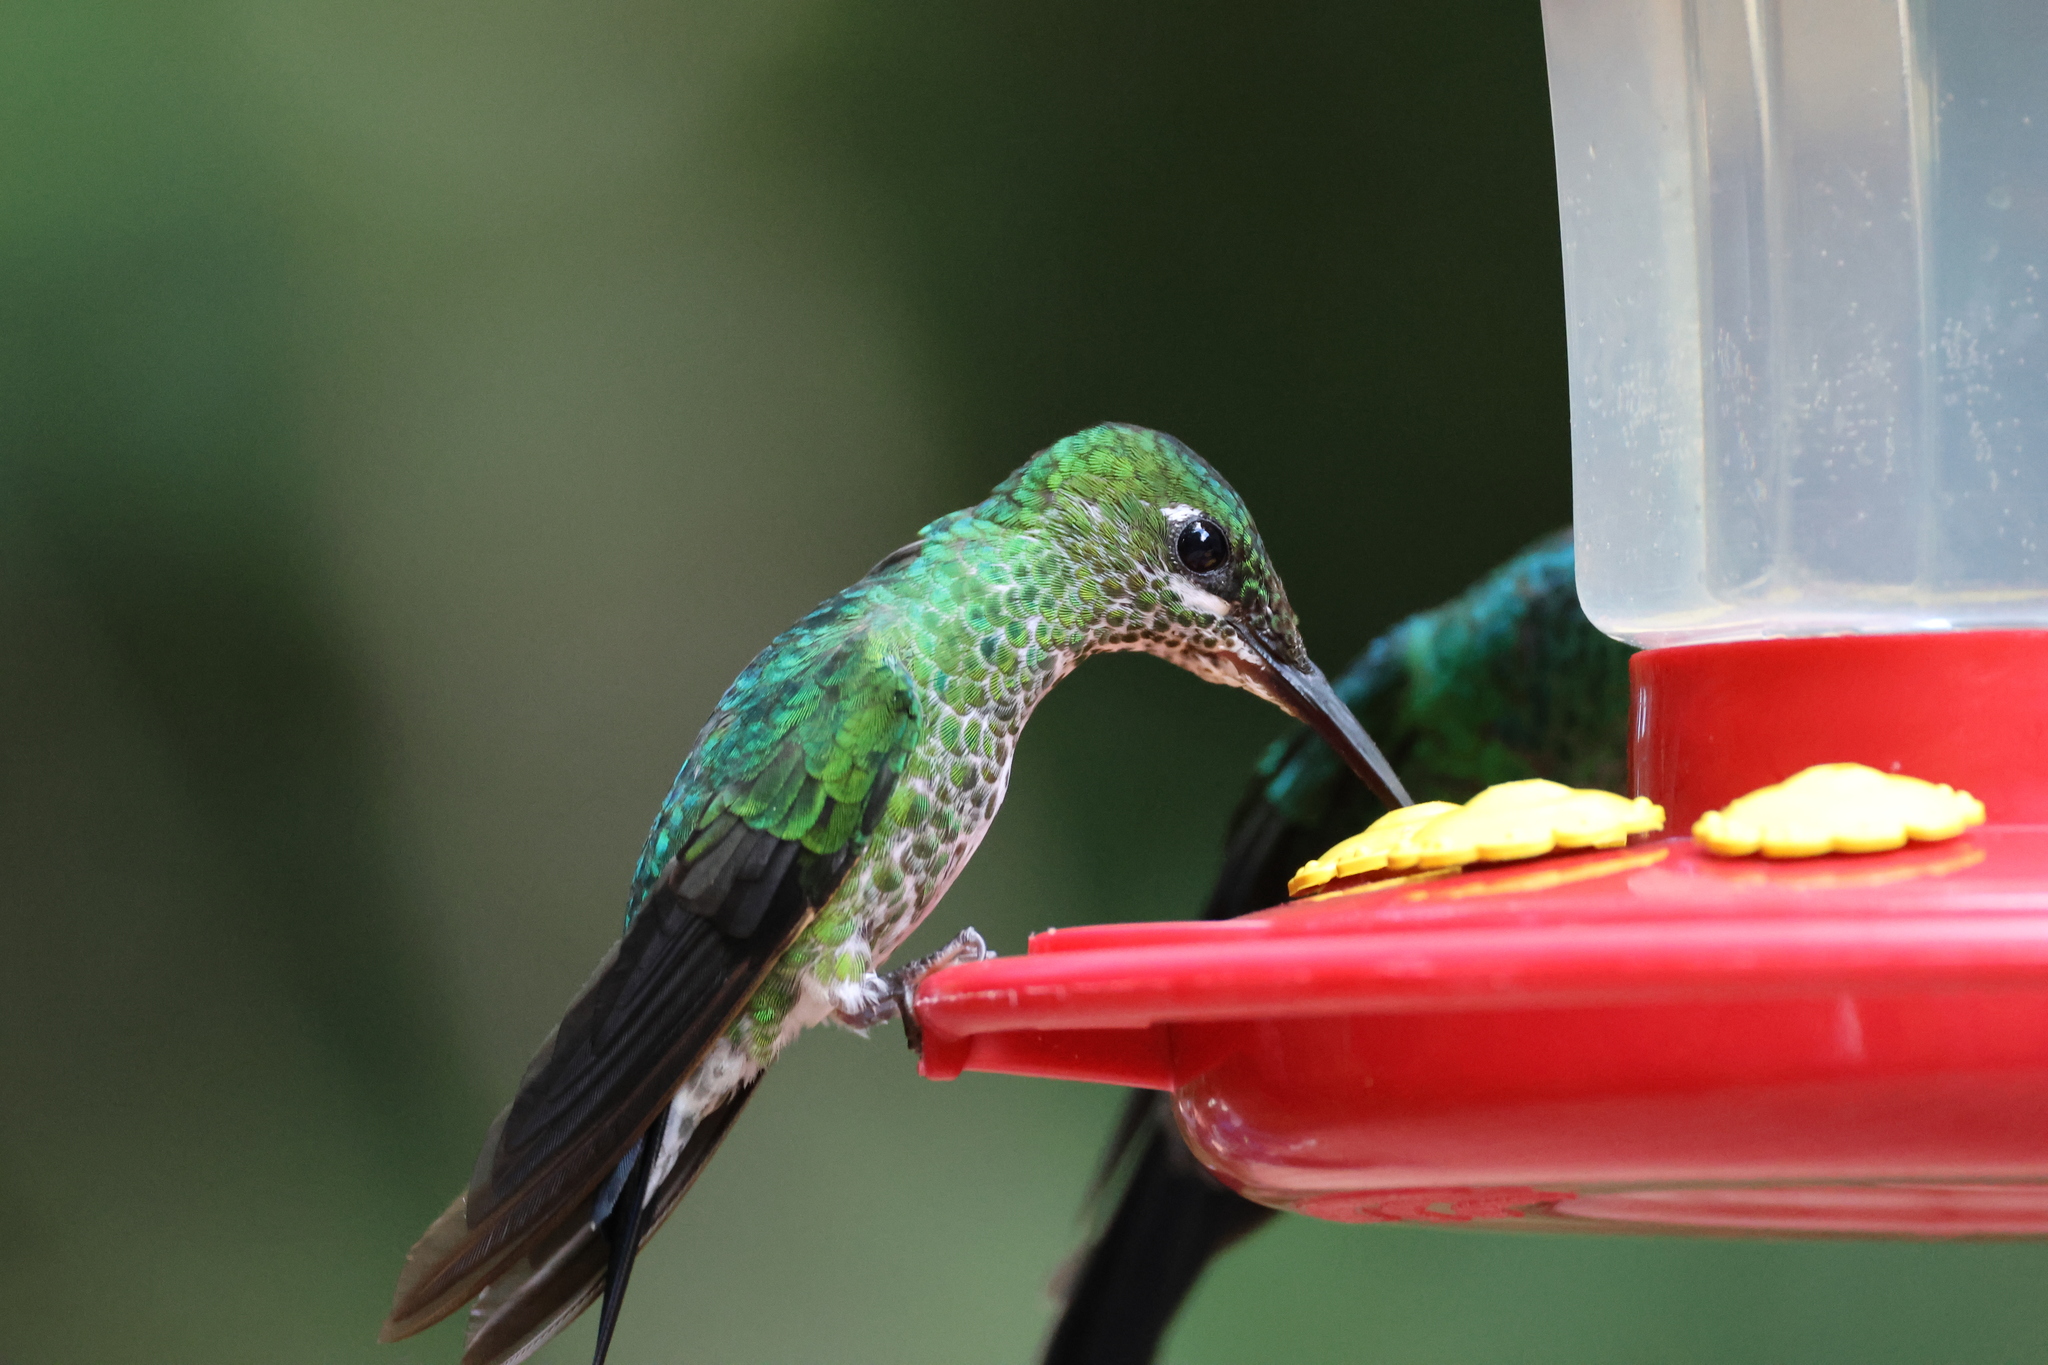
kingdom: Animalia
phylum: Chordata
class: Aves
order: Apodiformes
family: Trochilidae
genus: Heliodoxa
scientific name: Heliodoxa jacula
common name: Green-crowned brilliant
